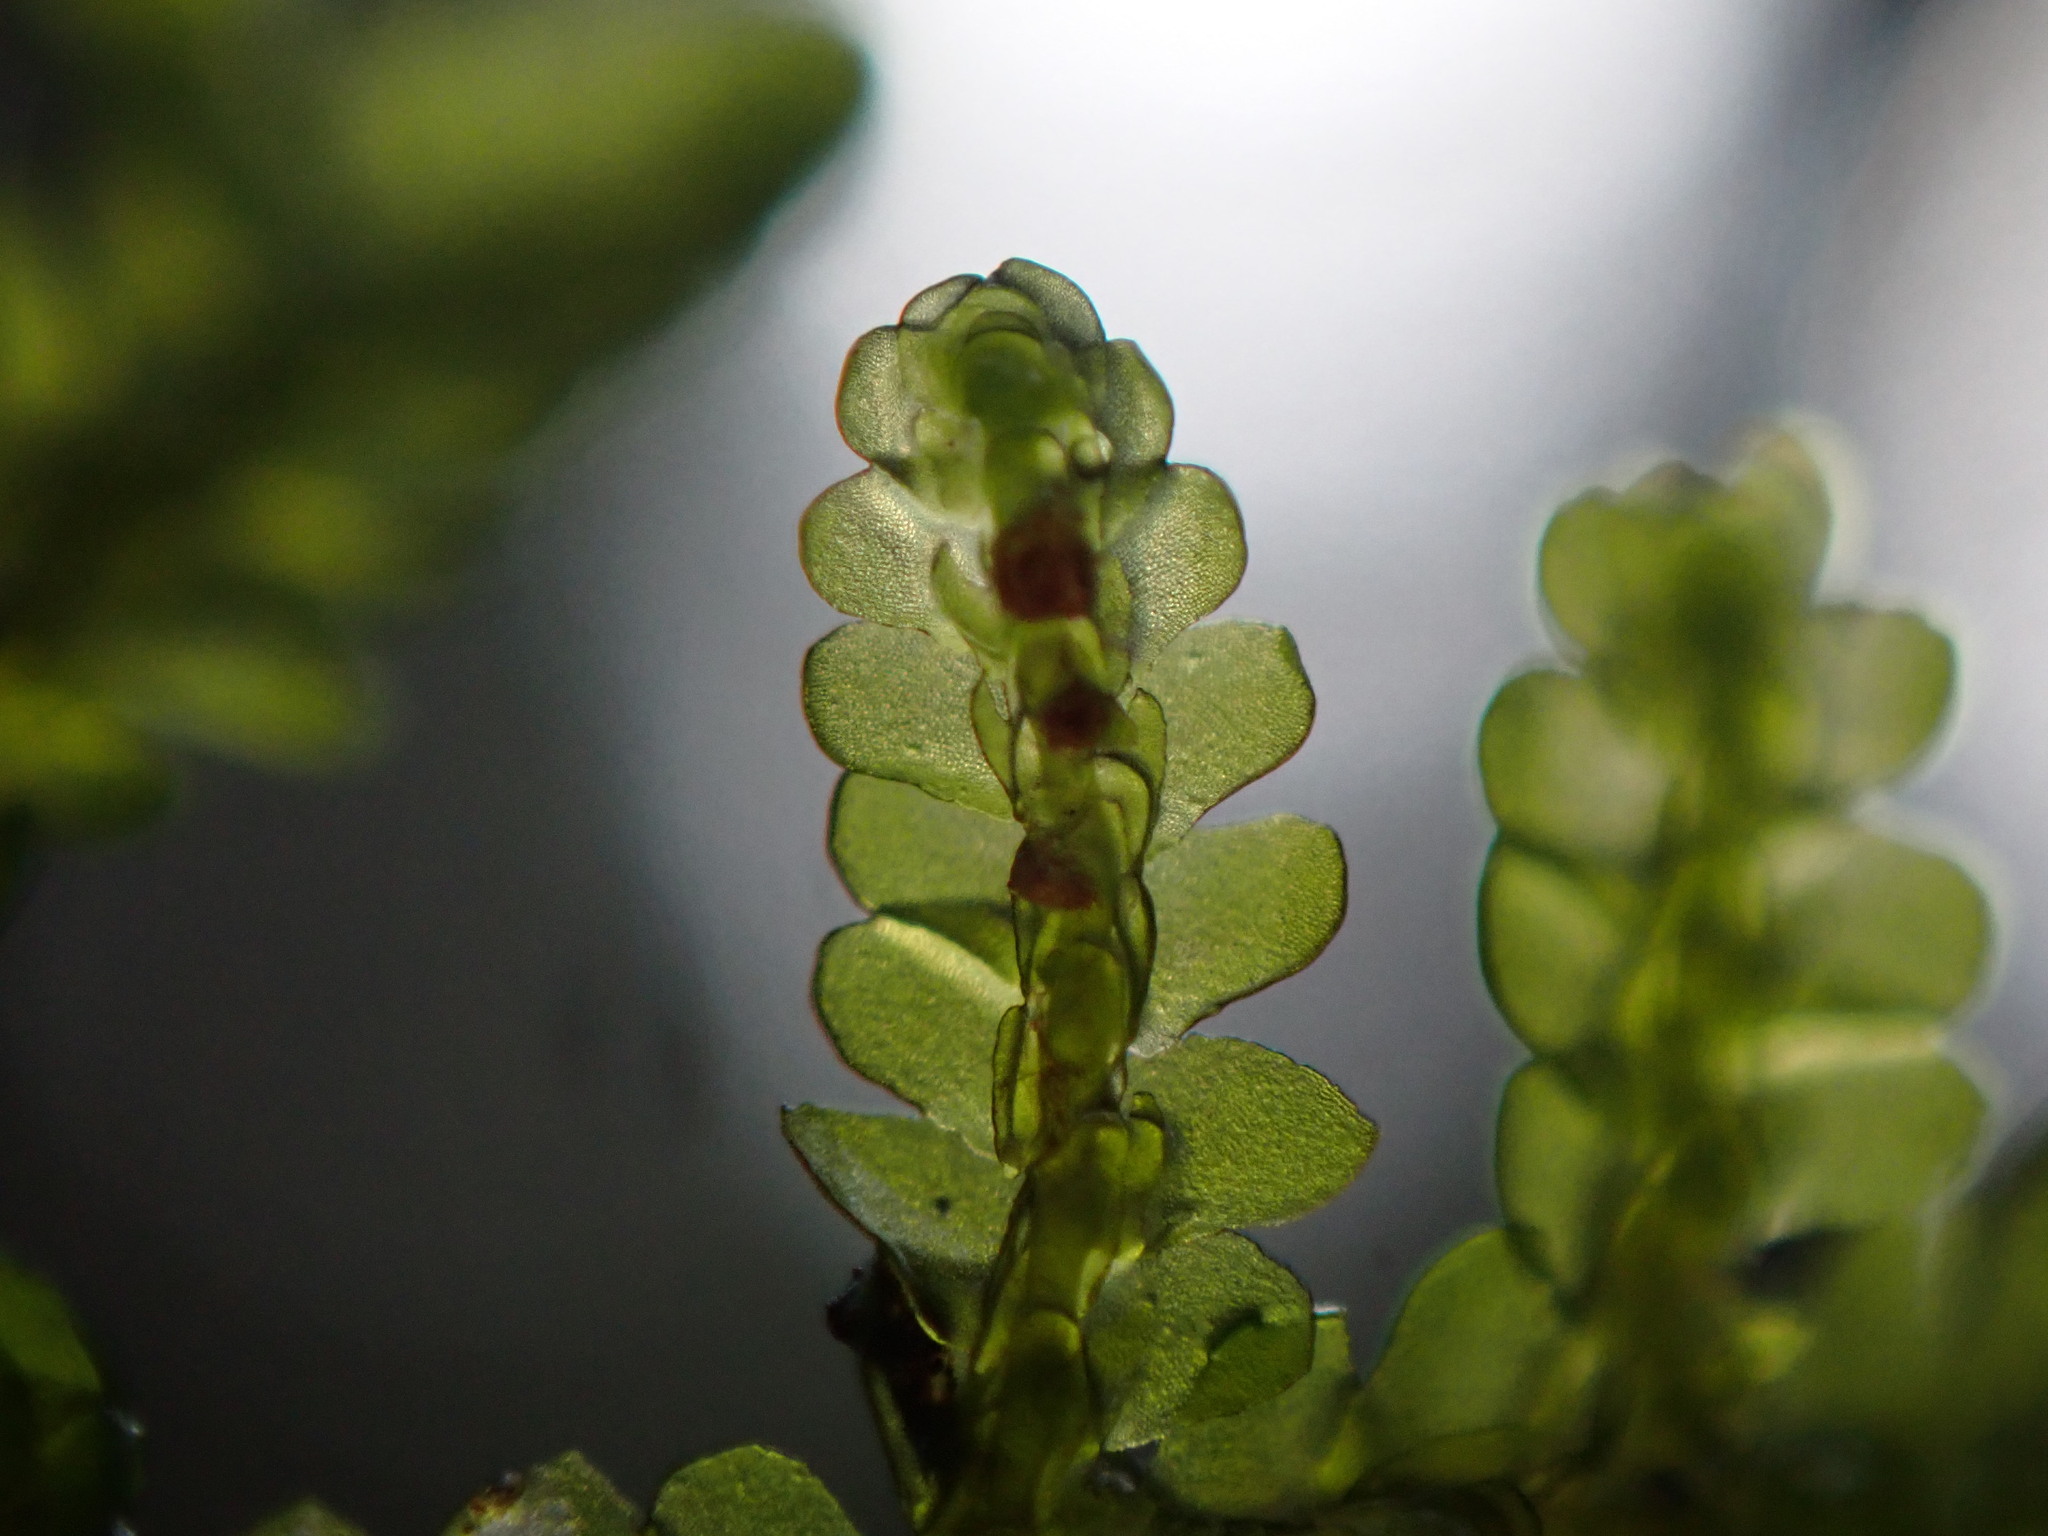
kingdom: Plantae
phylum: Marchantiophyta
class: Jungermanniopsida
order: Porellales
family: Porellaceae
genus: Porella
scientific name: Porella cordaeana
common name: Cliff scalewort
